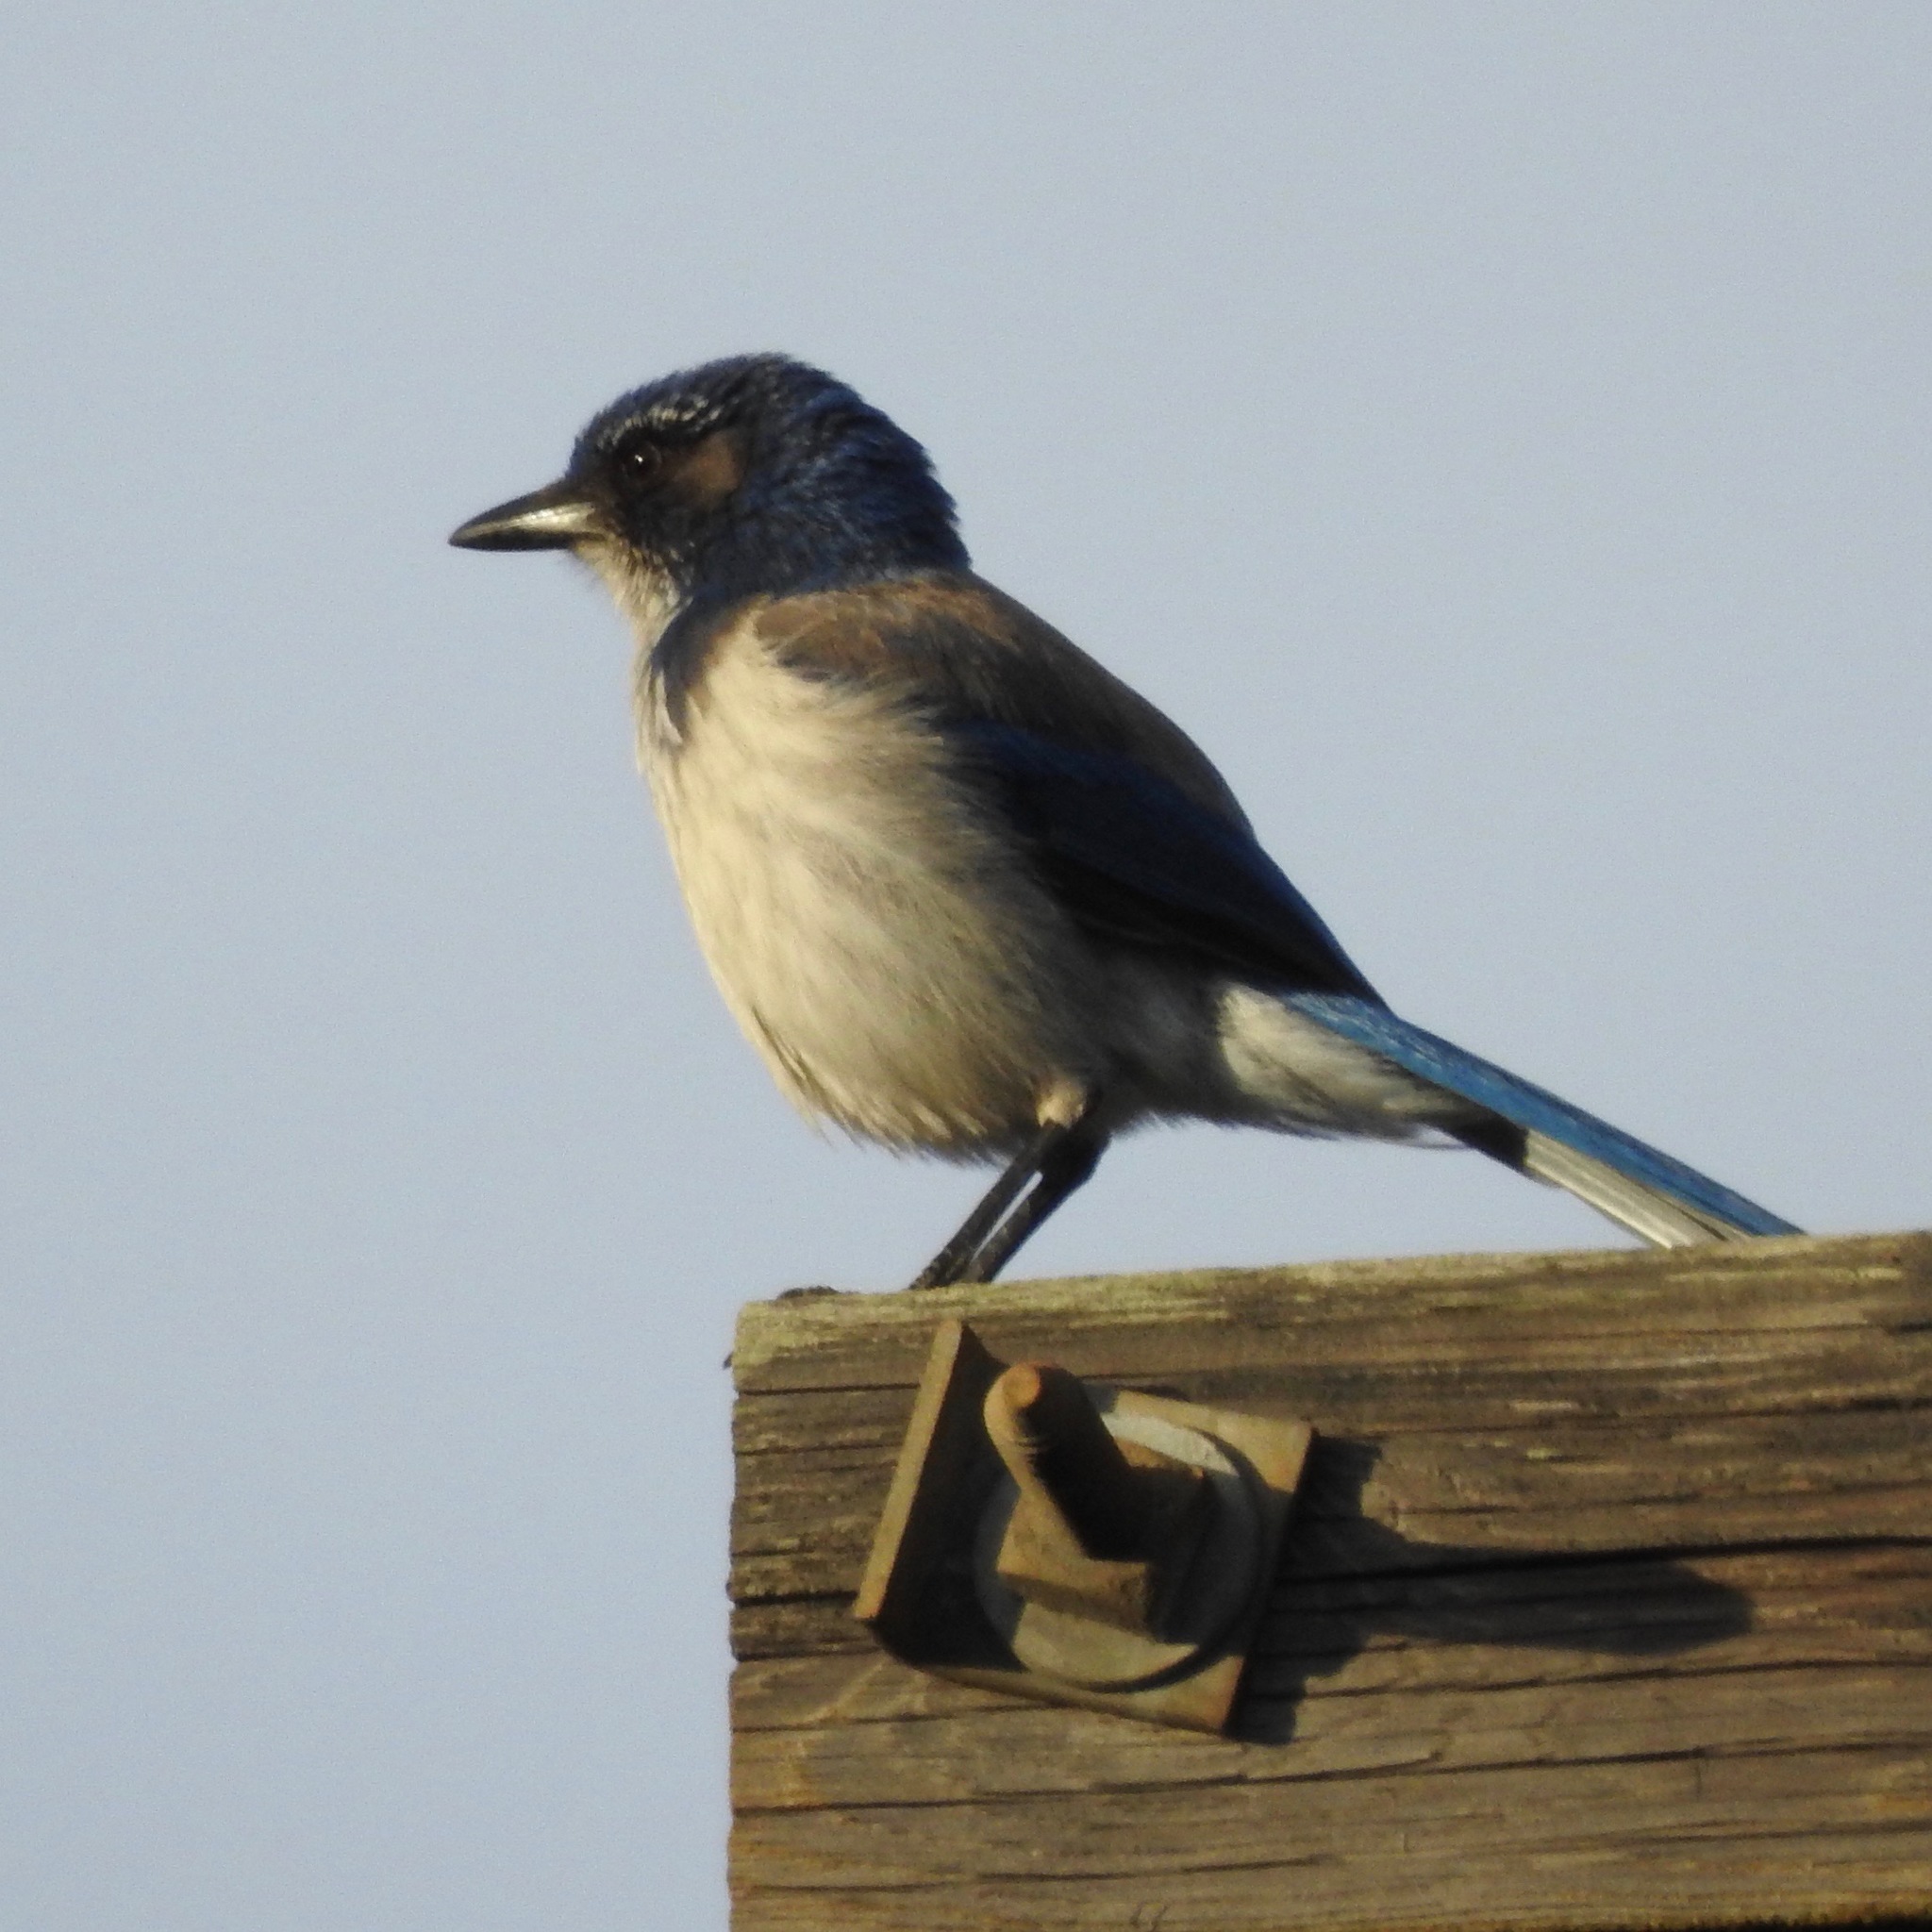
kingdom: Animalia
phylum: Chordata
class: Aves
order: Passeriformes
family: Corvidae
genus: Aphelocoma
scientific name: Aphelocoma californica
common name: California scrub-jay
